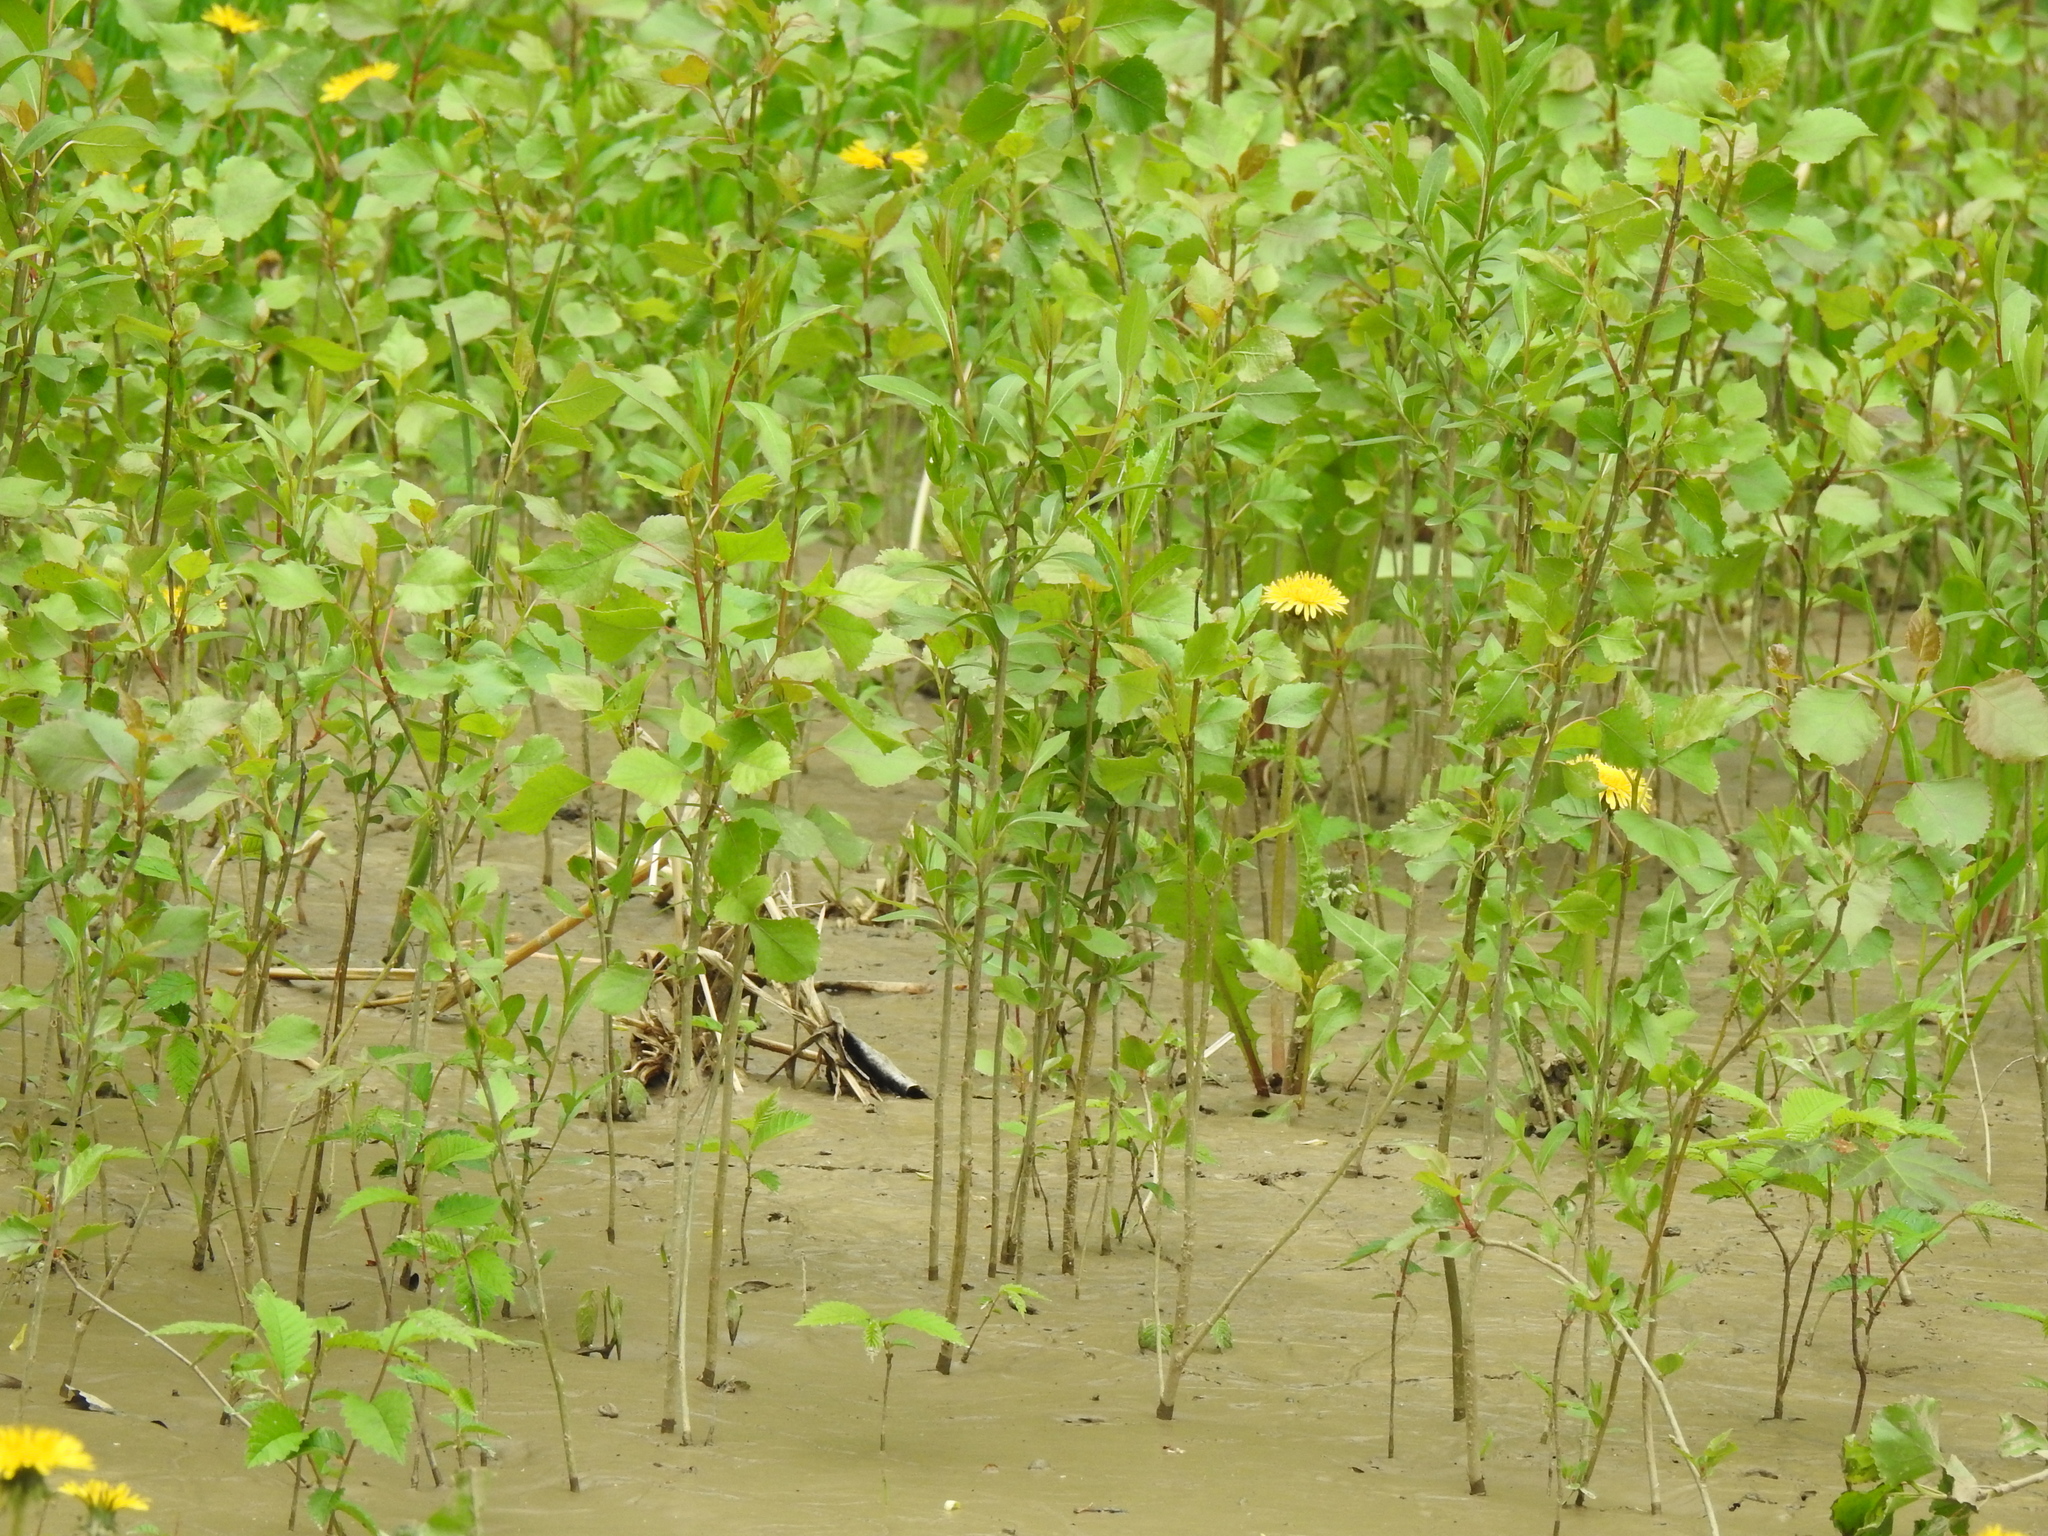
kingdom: Plantae
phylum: Tracheophyta
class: Magnoliopsida
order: Malpighiales
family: Salicaceae
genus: Populus
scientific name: Populus deltoides
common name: Eastern cottonwood
